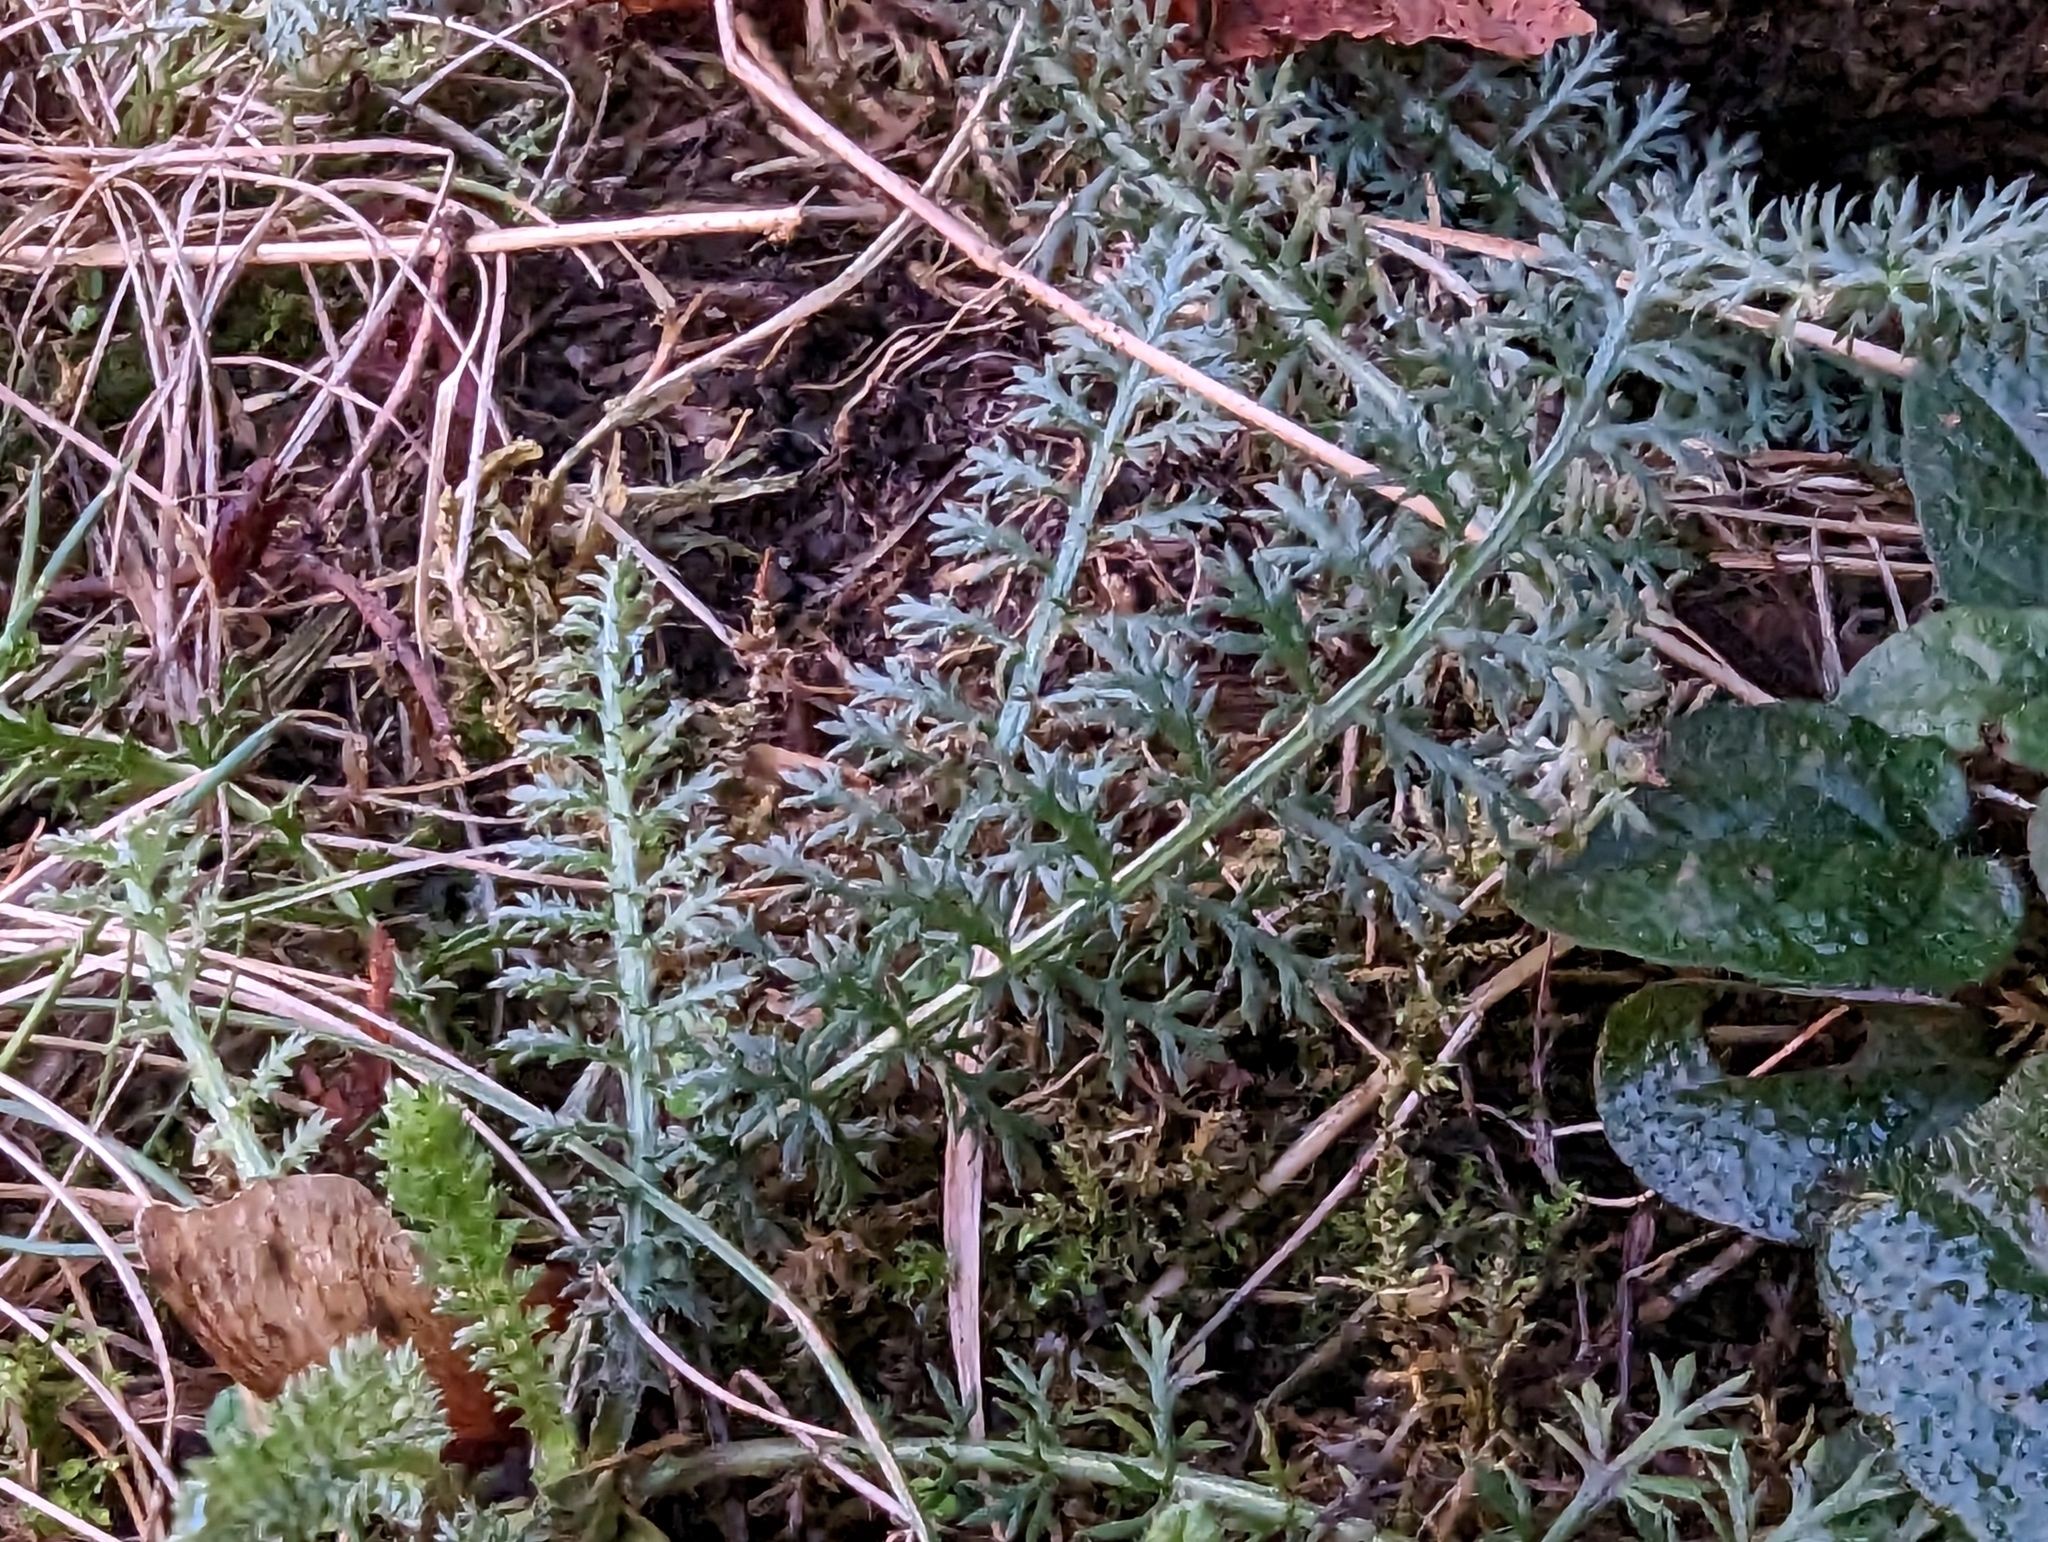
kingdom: Plantae
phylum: Tracheophyta
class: Magnoliopsida
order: Asterales
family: Asteraceae
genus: Achillea
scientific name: Achillea millefolium
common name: Yarrow
